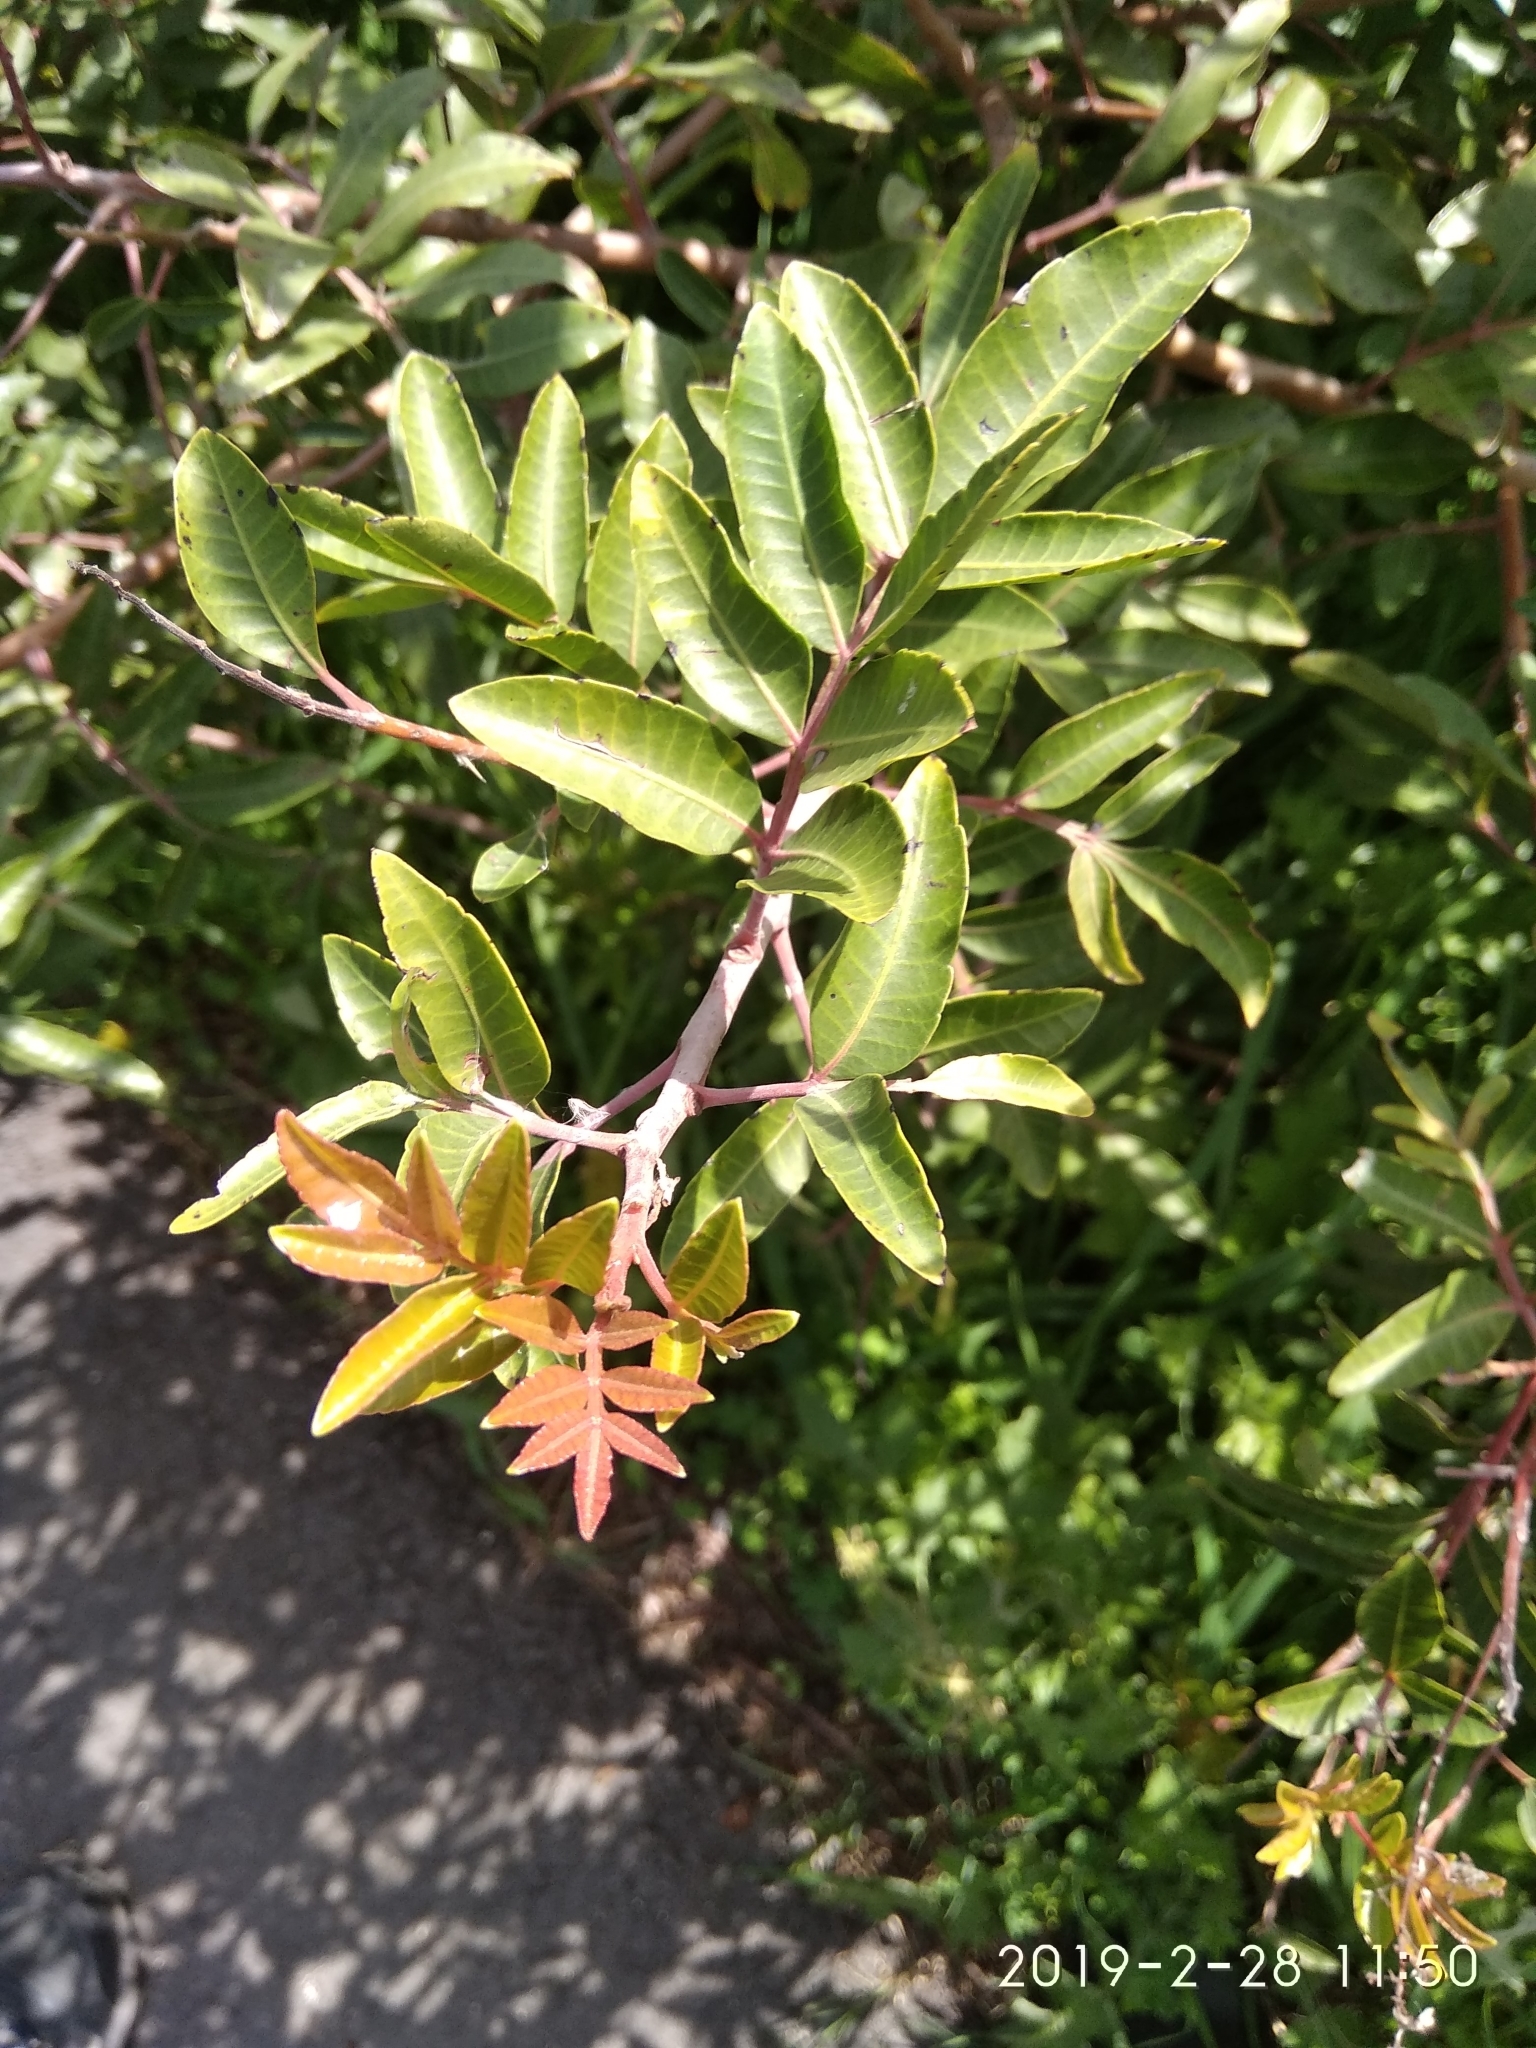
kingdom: Plantae
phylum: Tracheophyta
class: Magnoliopsida
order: Sapindales
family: Anacardiaceae
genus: Pistacia
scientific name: Pistacia atlantica
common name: Mt. atlas mastic tree
